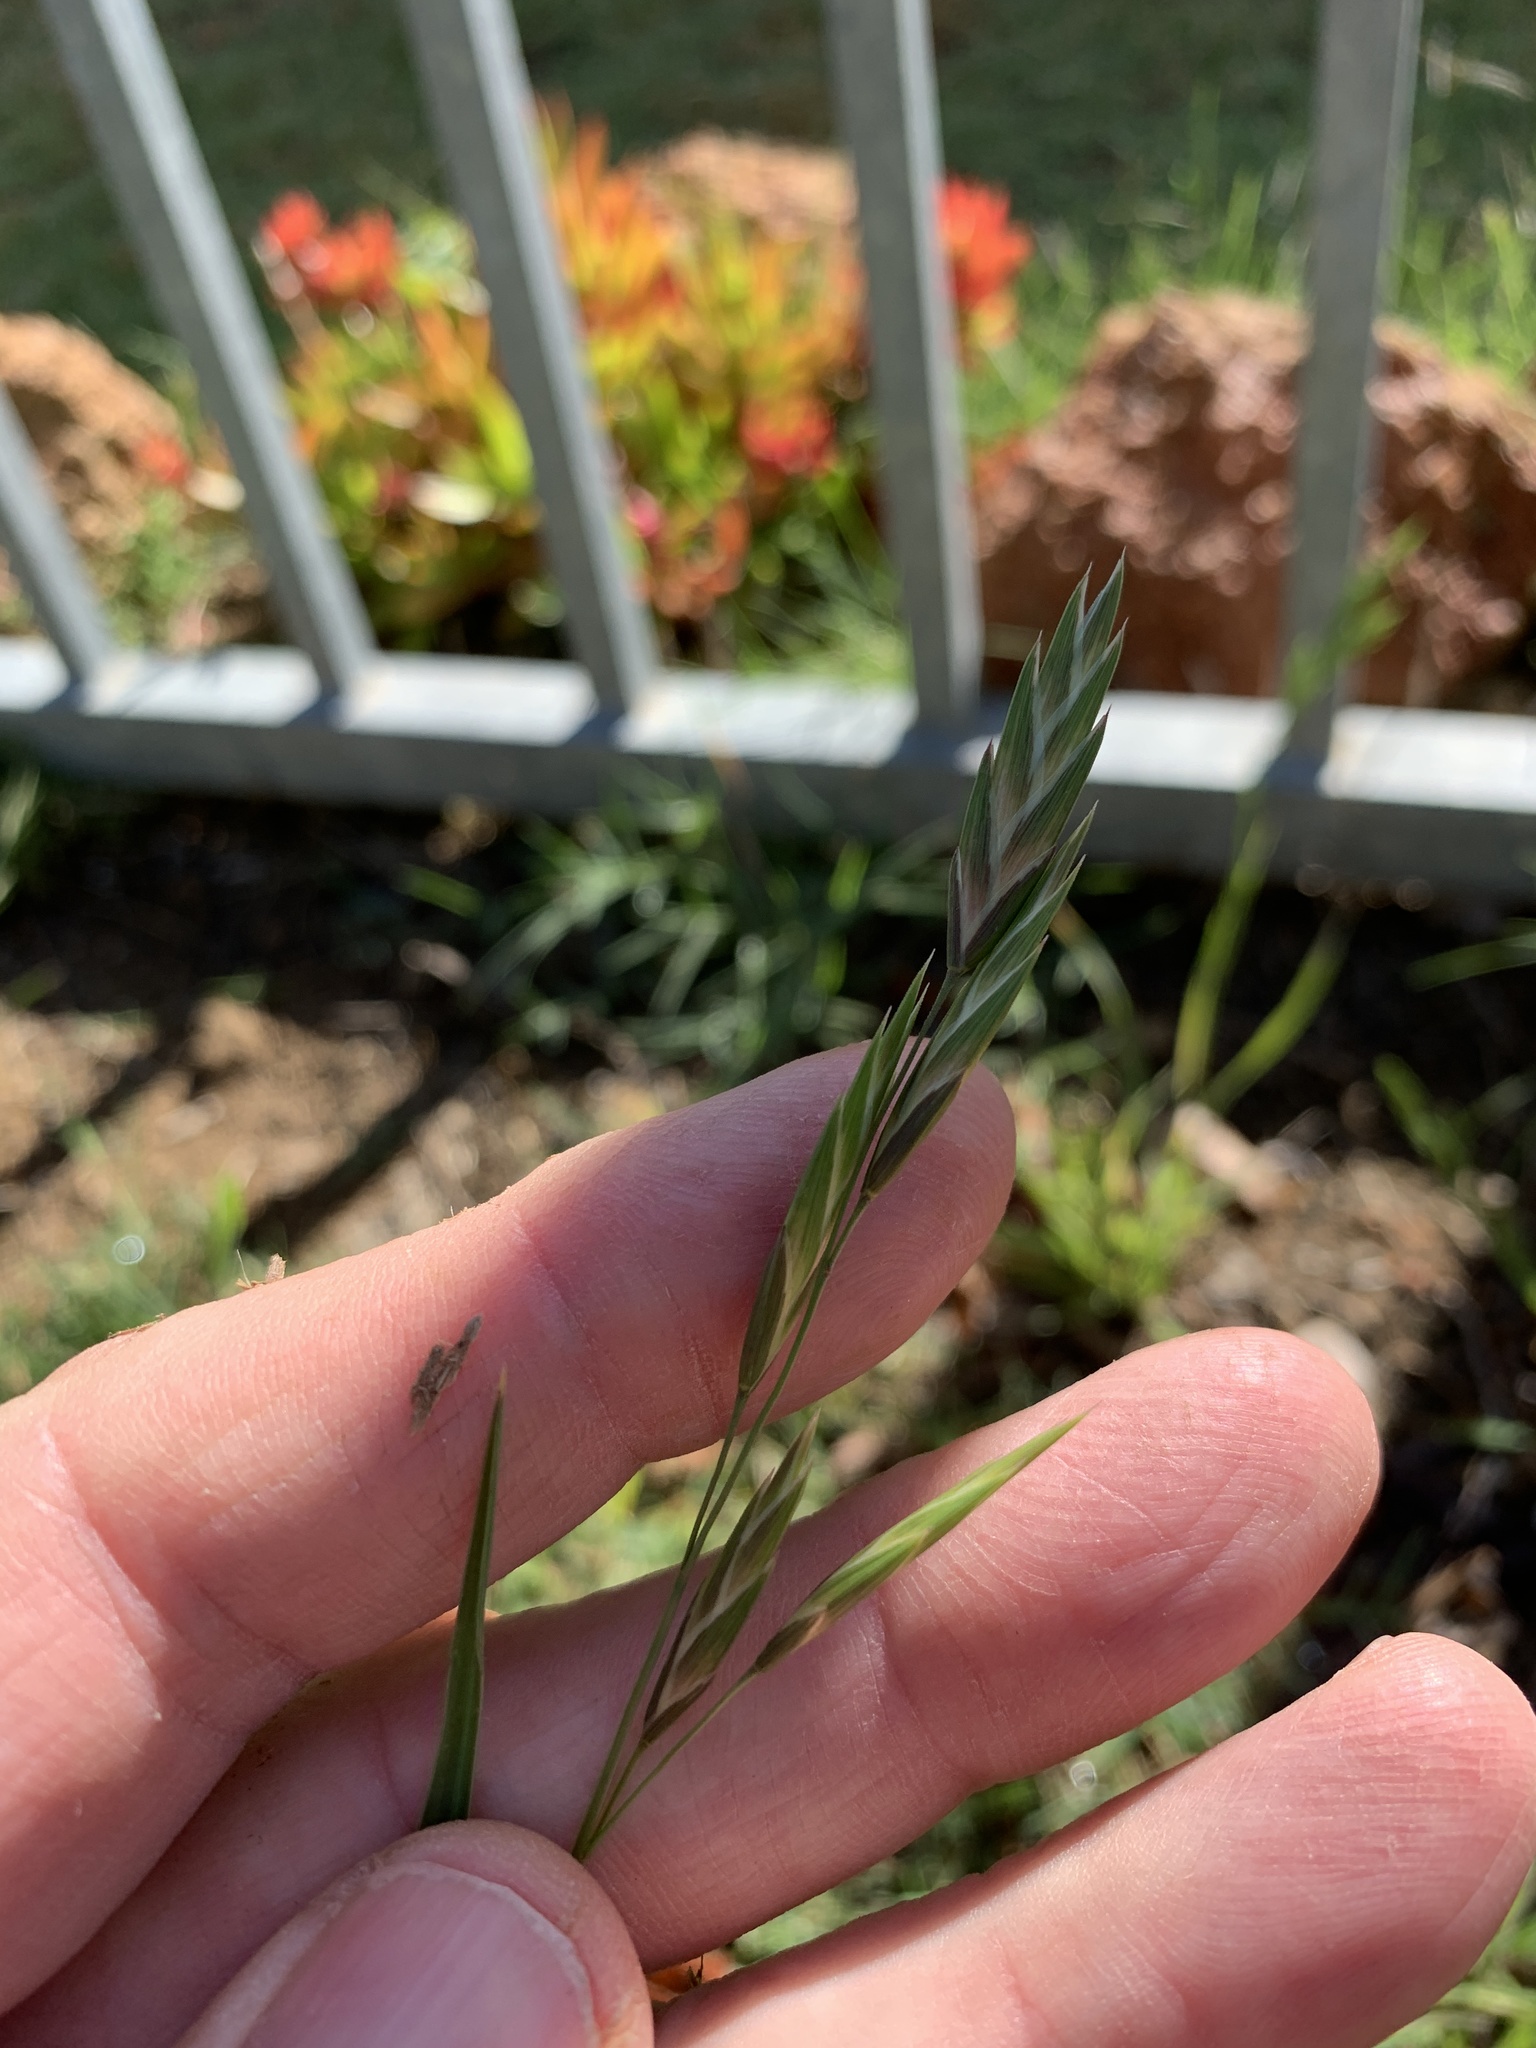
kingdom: Plantae
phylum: Tracheophyta
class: Liliopsida
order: Poales
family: Poaceae
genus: Bromus
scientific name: Bromus catharticus
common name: Rescuegrass
